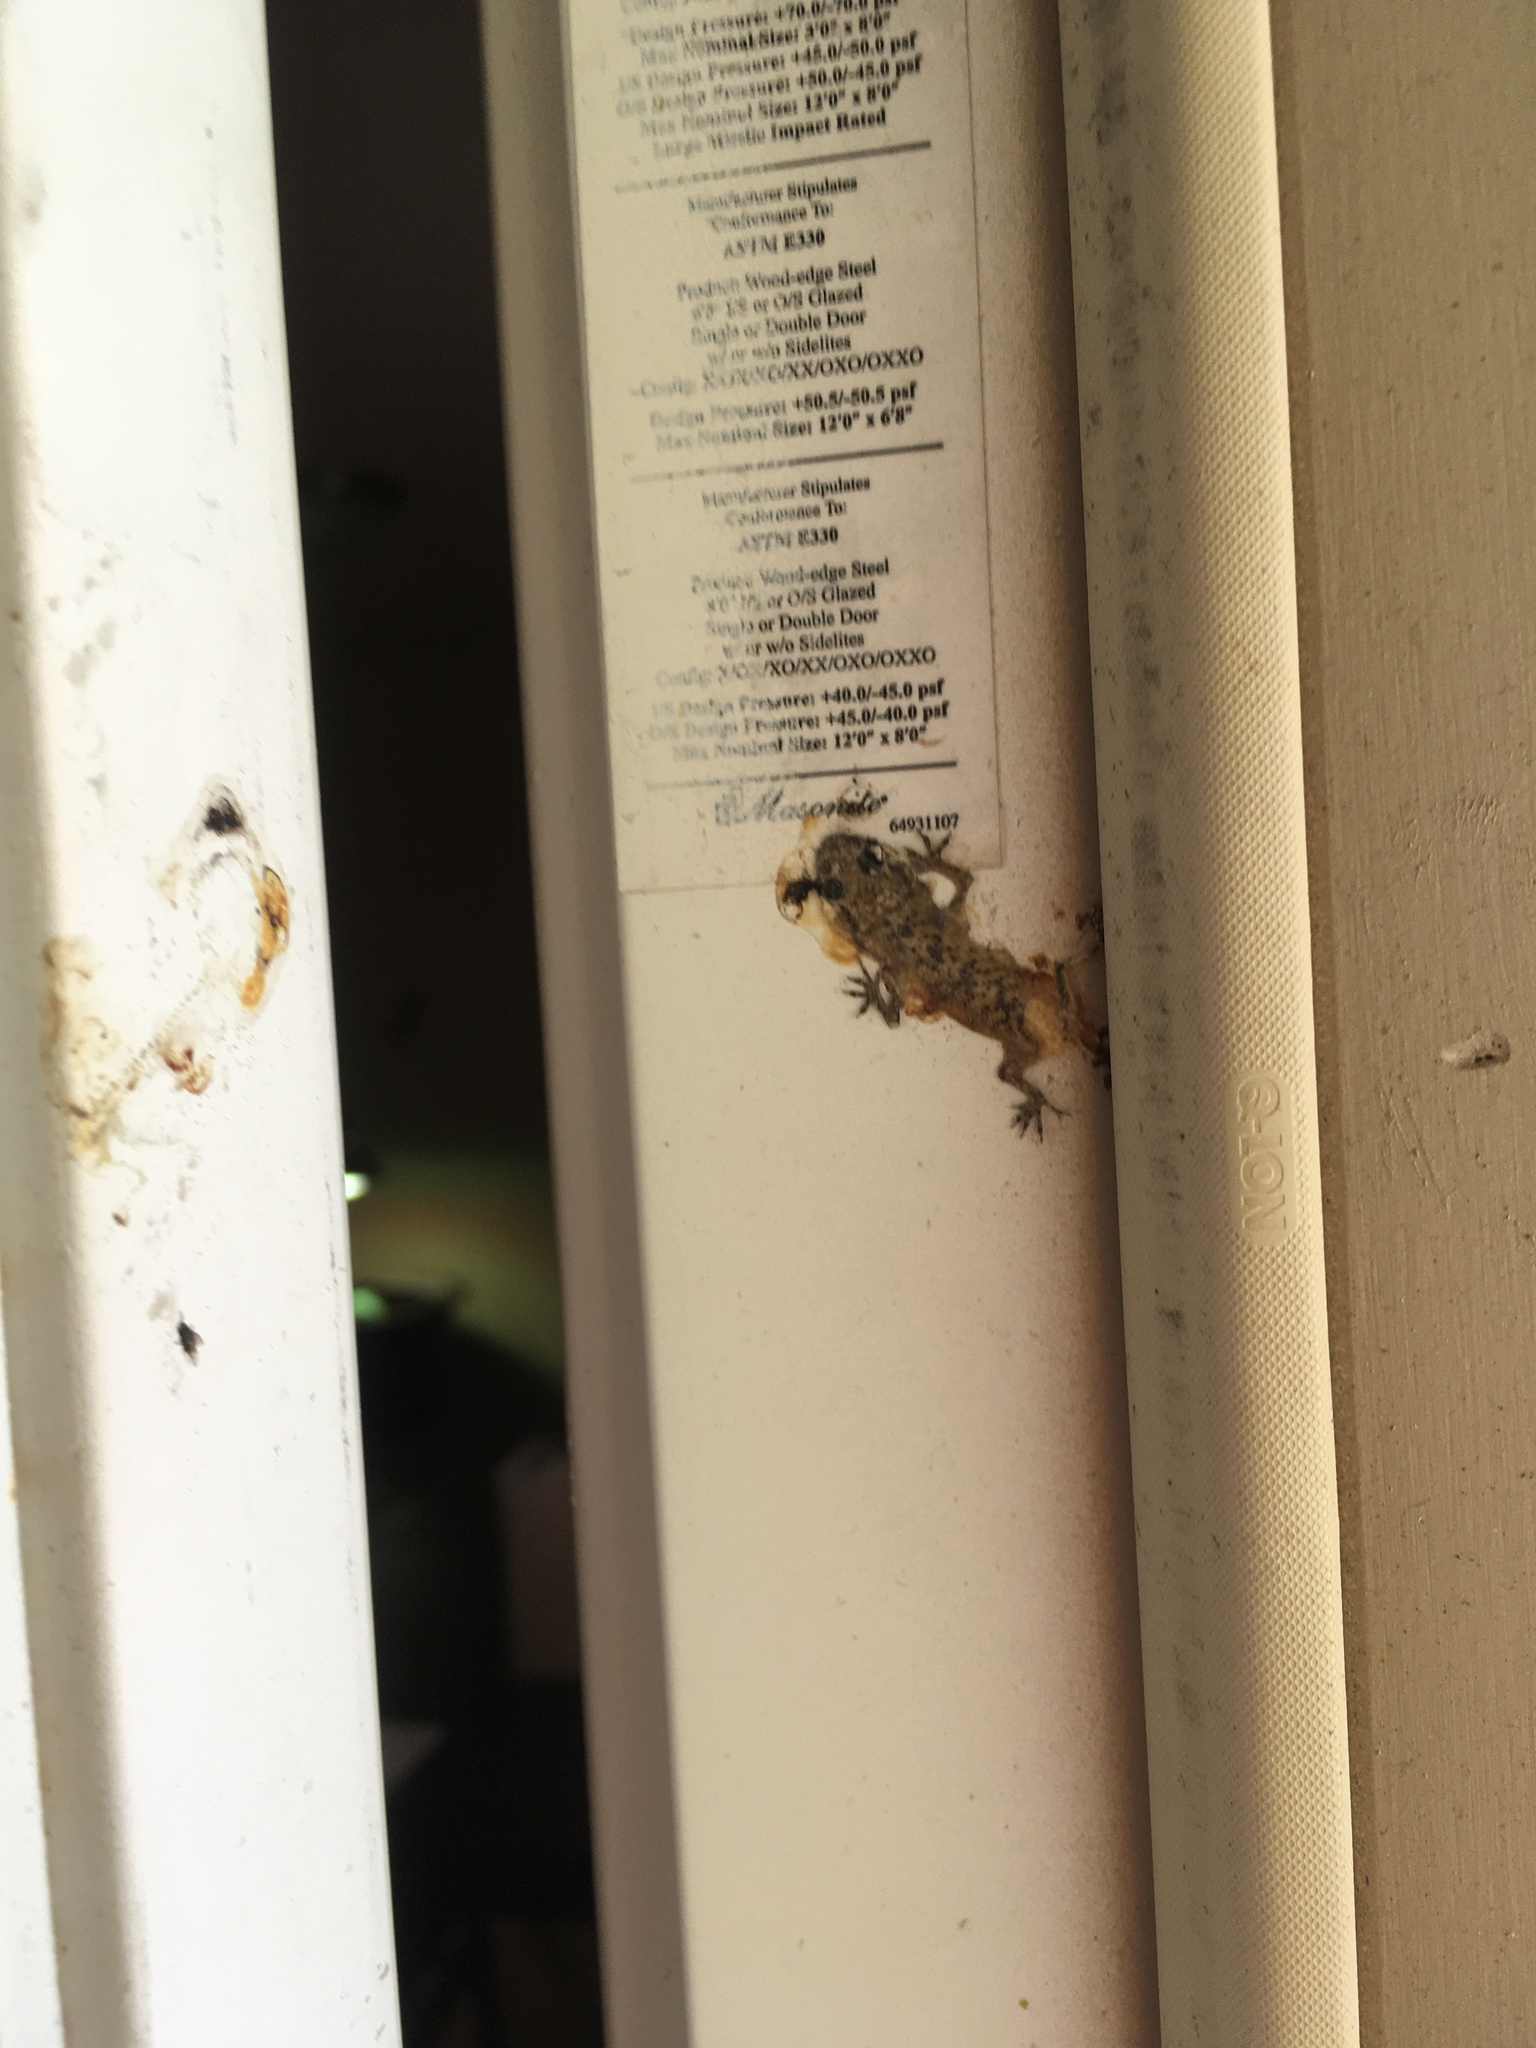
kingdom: Animalia
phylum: Chordata
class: Squamata
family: Gekkonidae
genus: Hemidactylus
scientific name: Hemidactylus turcicus
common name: Turkish gecko
